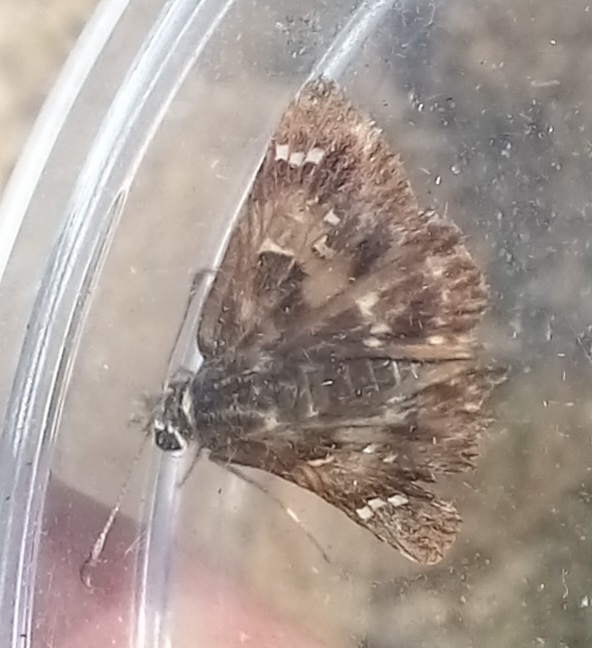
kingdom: Animalia
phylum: Arthropoda
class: Insecta
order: Lepidoptera
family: Hesperiidae
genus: Carcharodus
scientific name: Carcharodus alceae
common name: Mallow skipper
